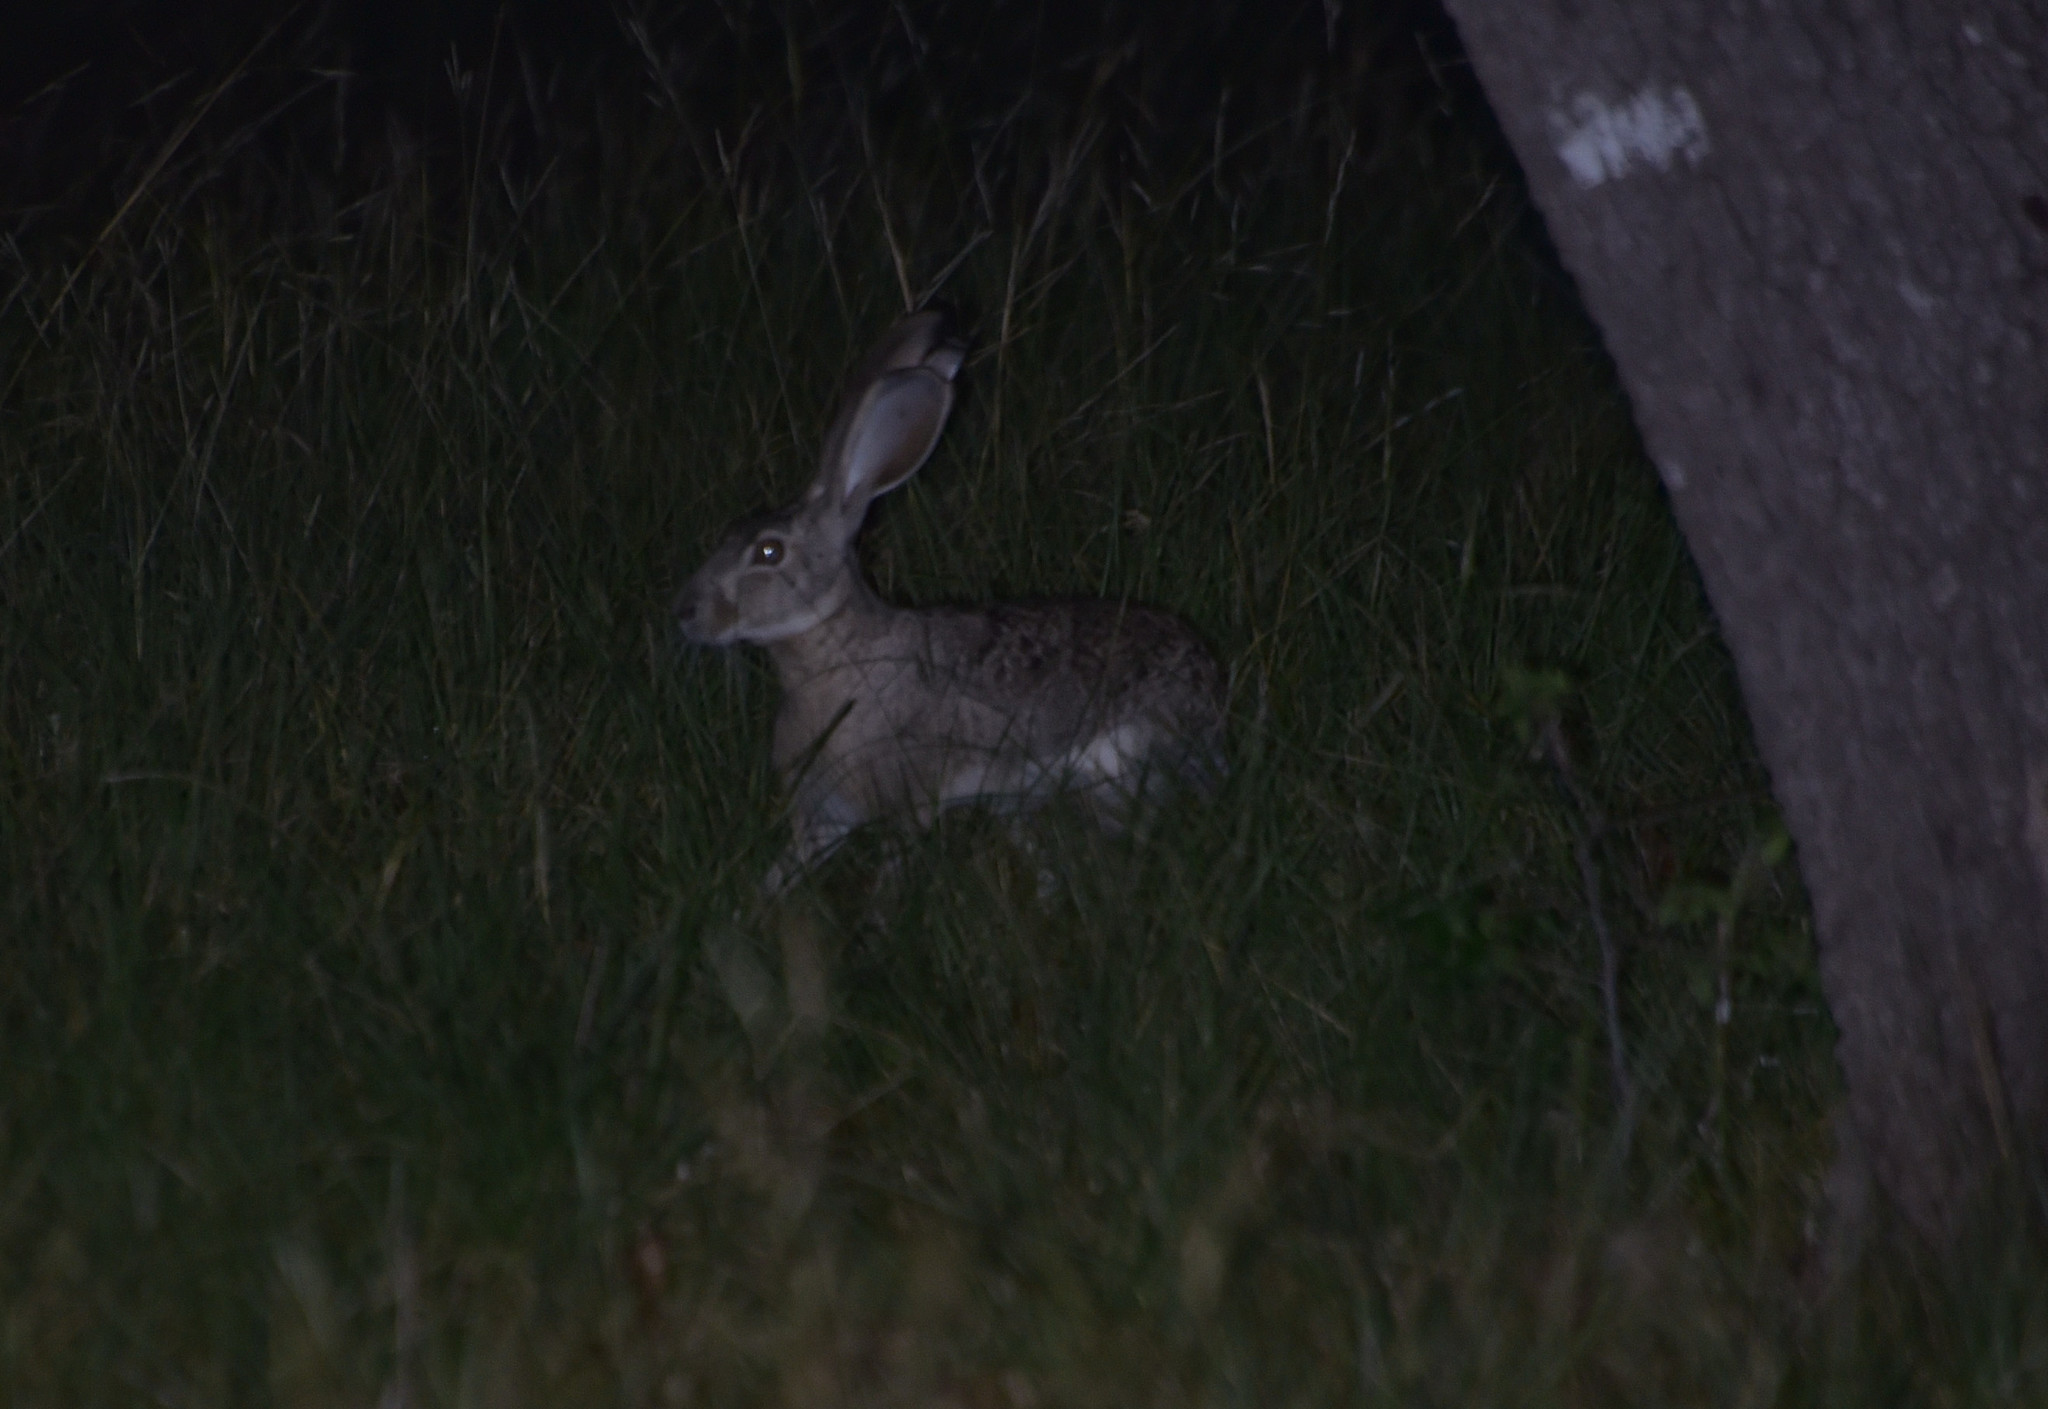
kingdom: Animalia
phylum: Chordata
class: Mammalia
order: Lagomorpha
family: Leporidae
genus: Lepus
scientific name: Lepus californicus
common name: Black-tailed jackrabbit
